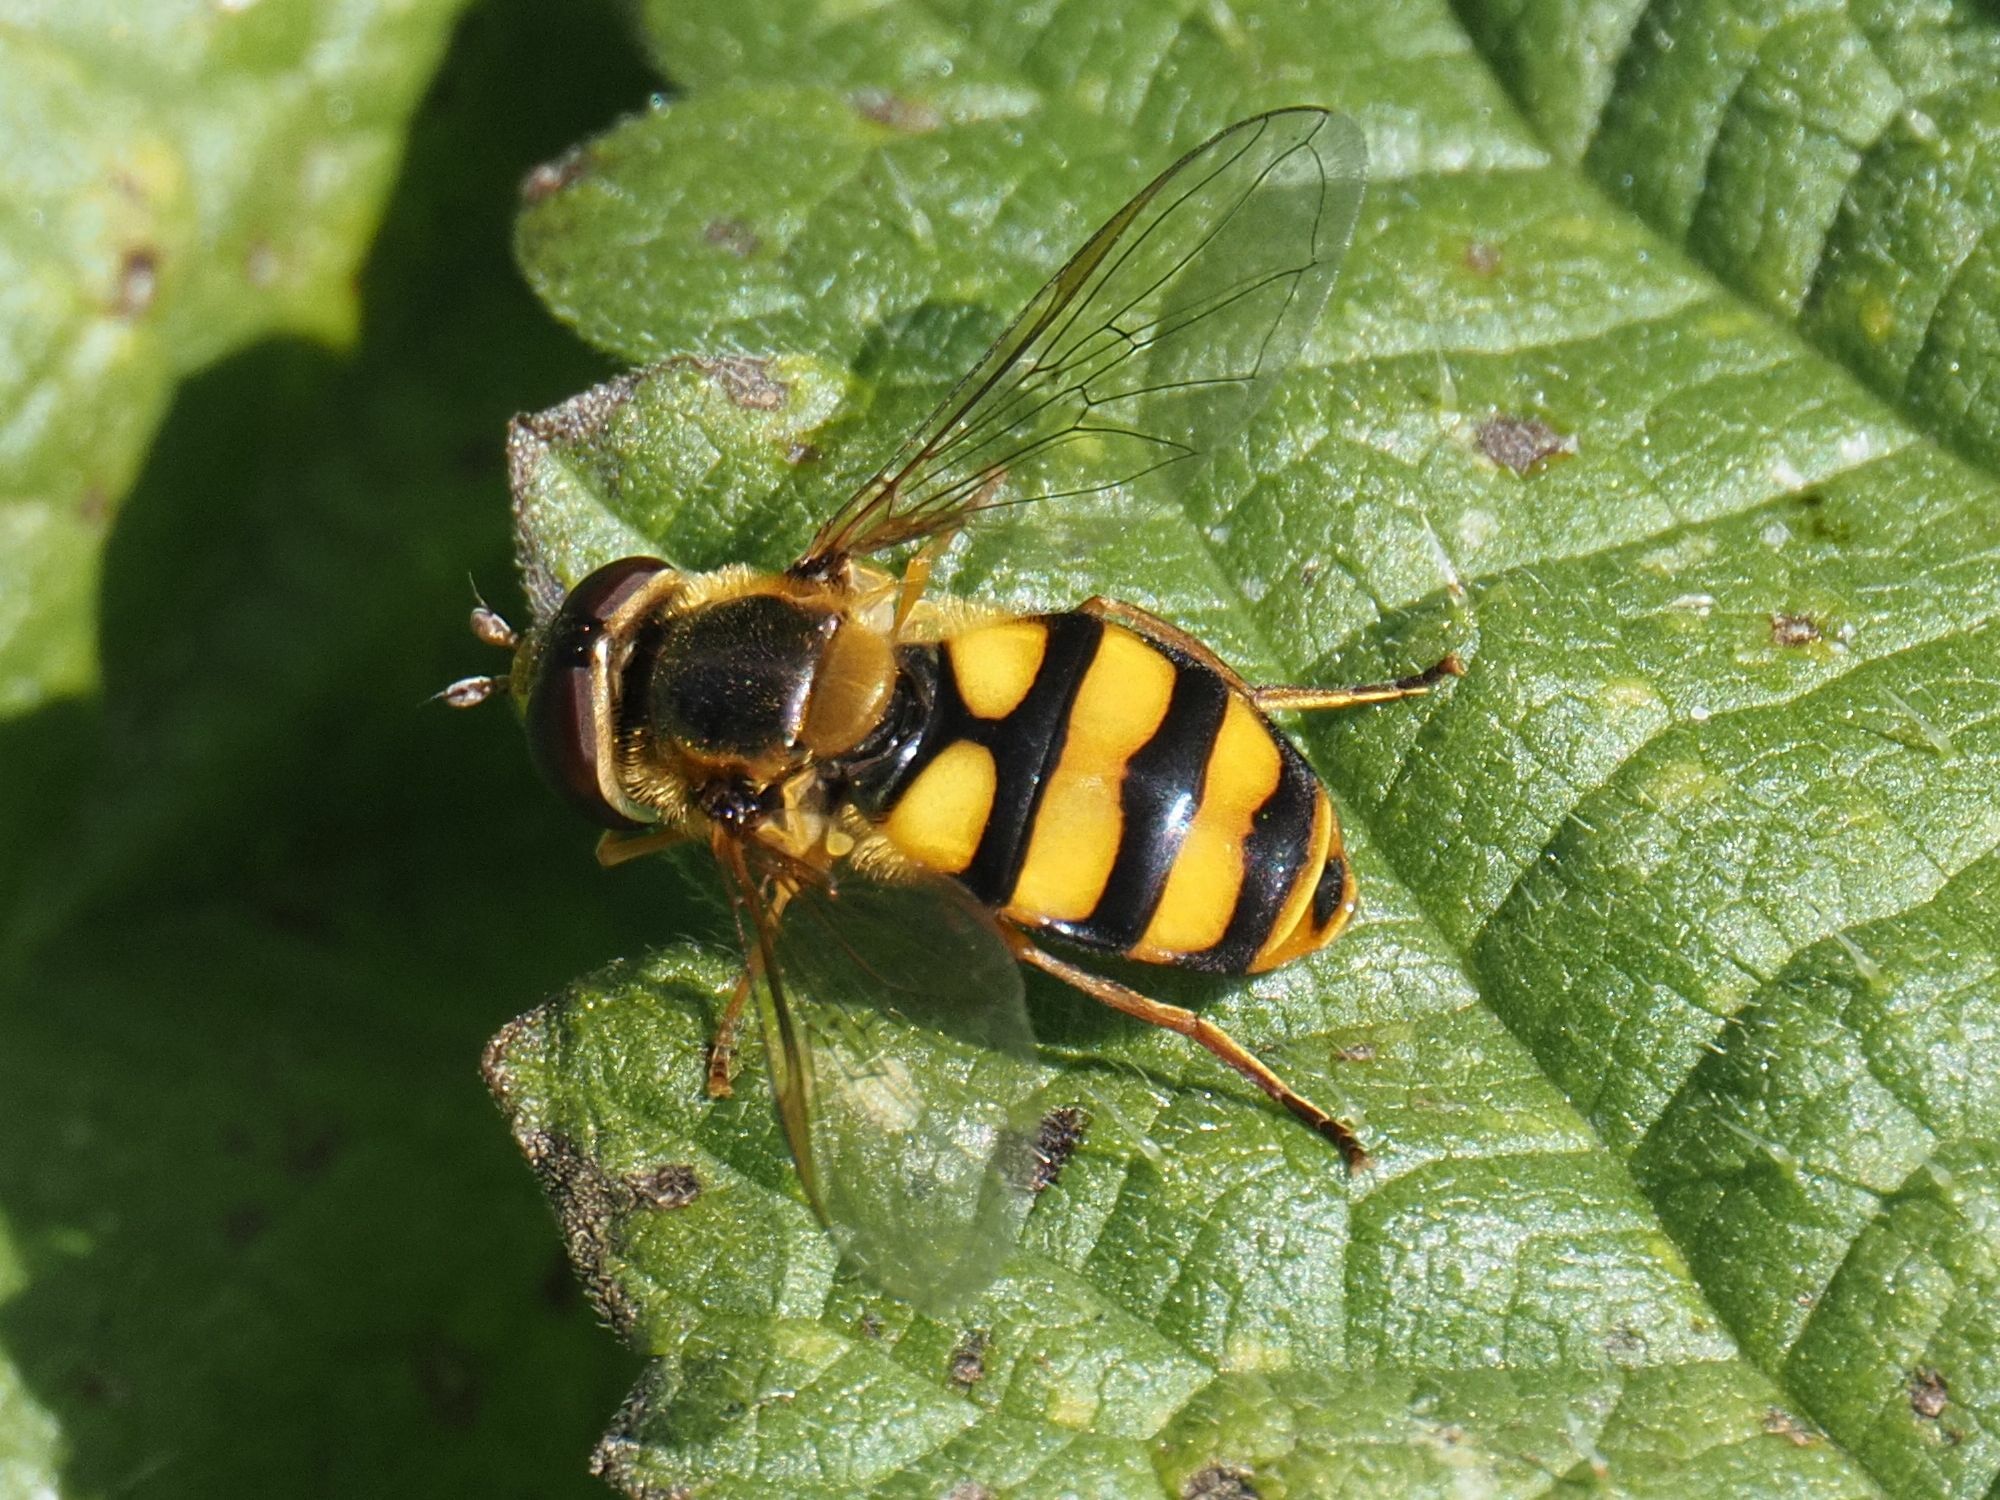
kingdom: Animalia
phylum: Arthropoda
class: Insecta
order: Diptera
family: Syrphidae
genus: Eupeodes
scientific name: Eupeodes latifasciatus
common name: Variable aphideater
